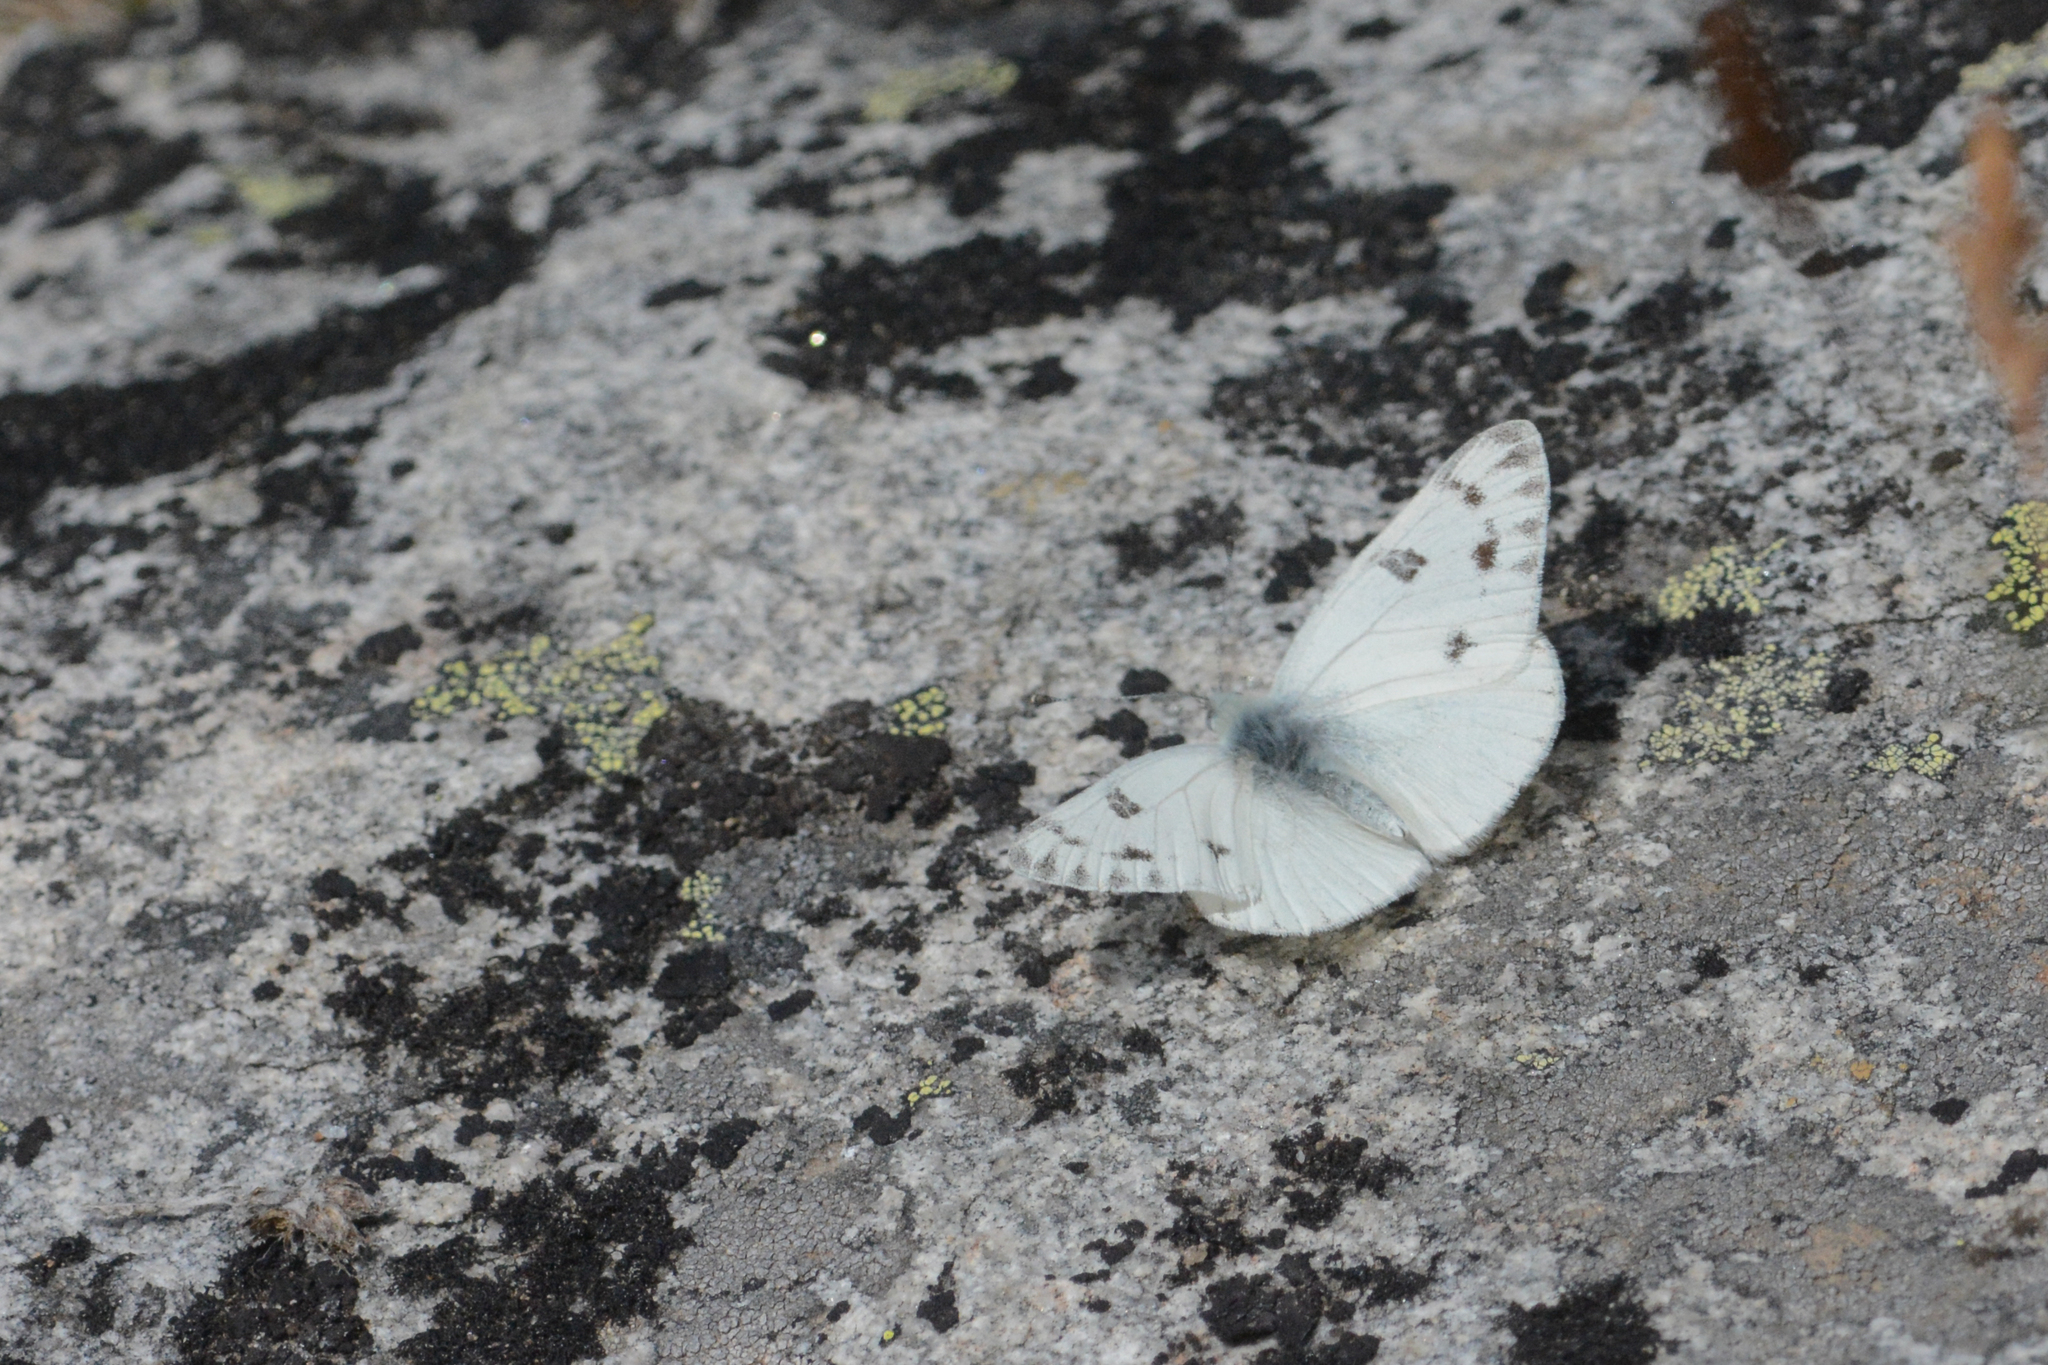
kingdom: Animalia
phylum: Arthropoda
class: Insecta
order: Lepidoptera
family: Pieridae
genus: Pontia
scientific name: Pontia occidentalis
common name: Western white
